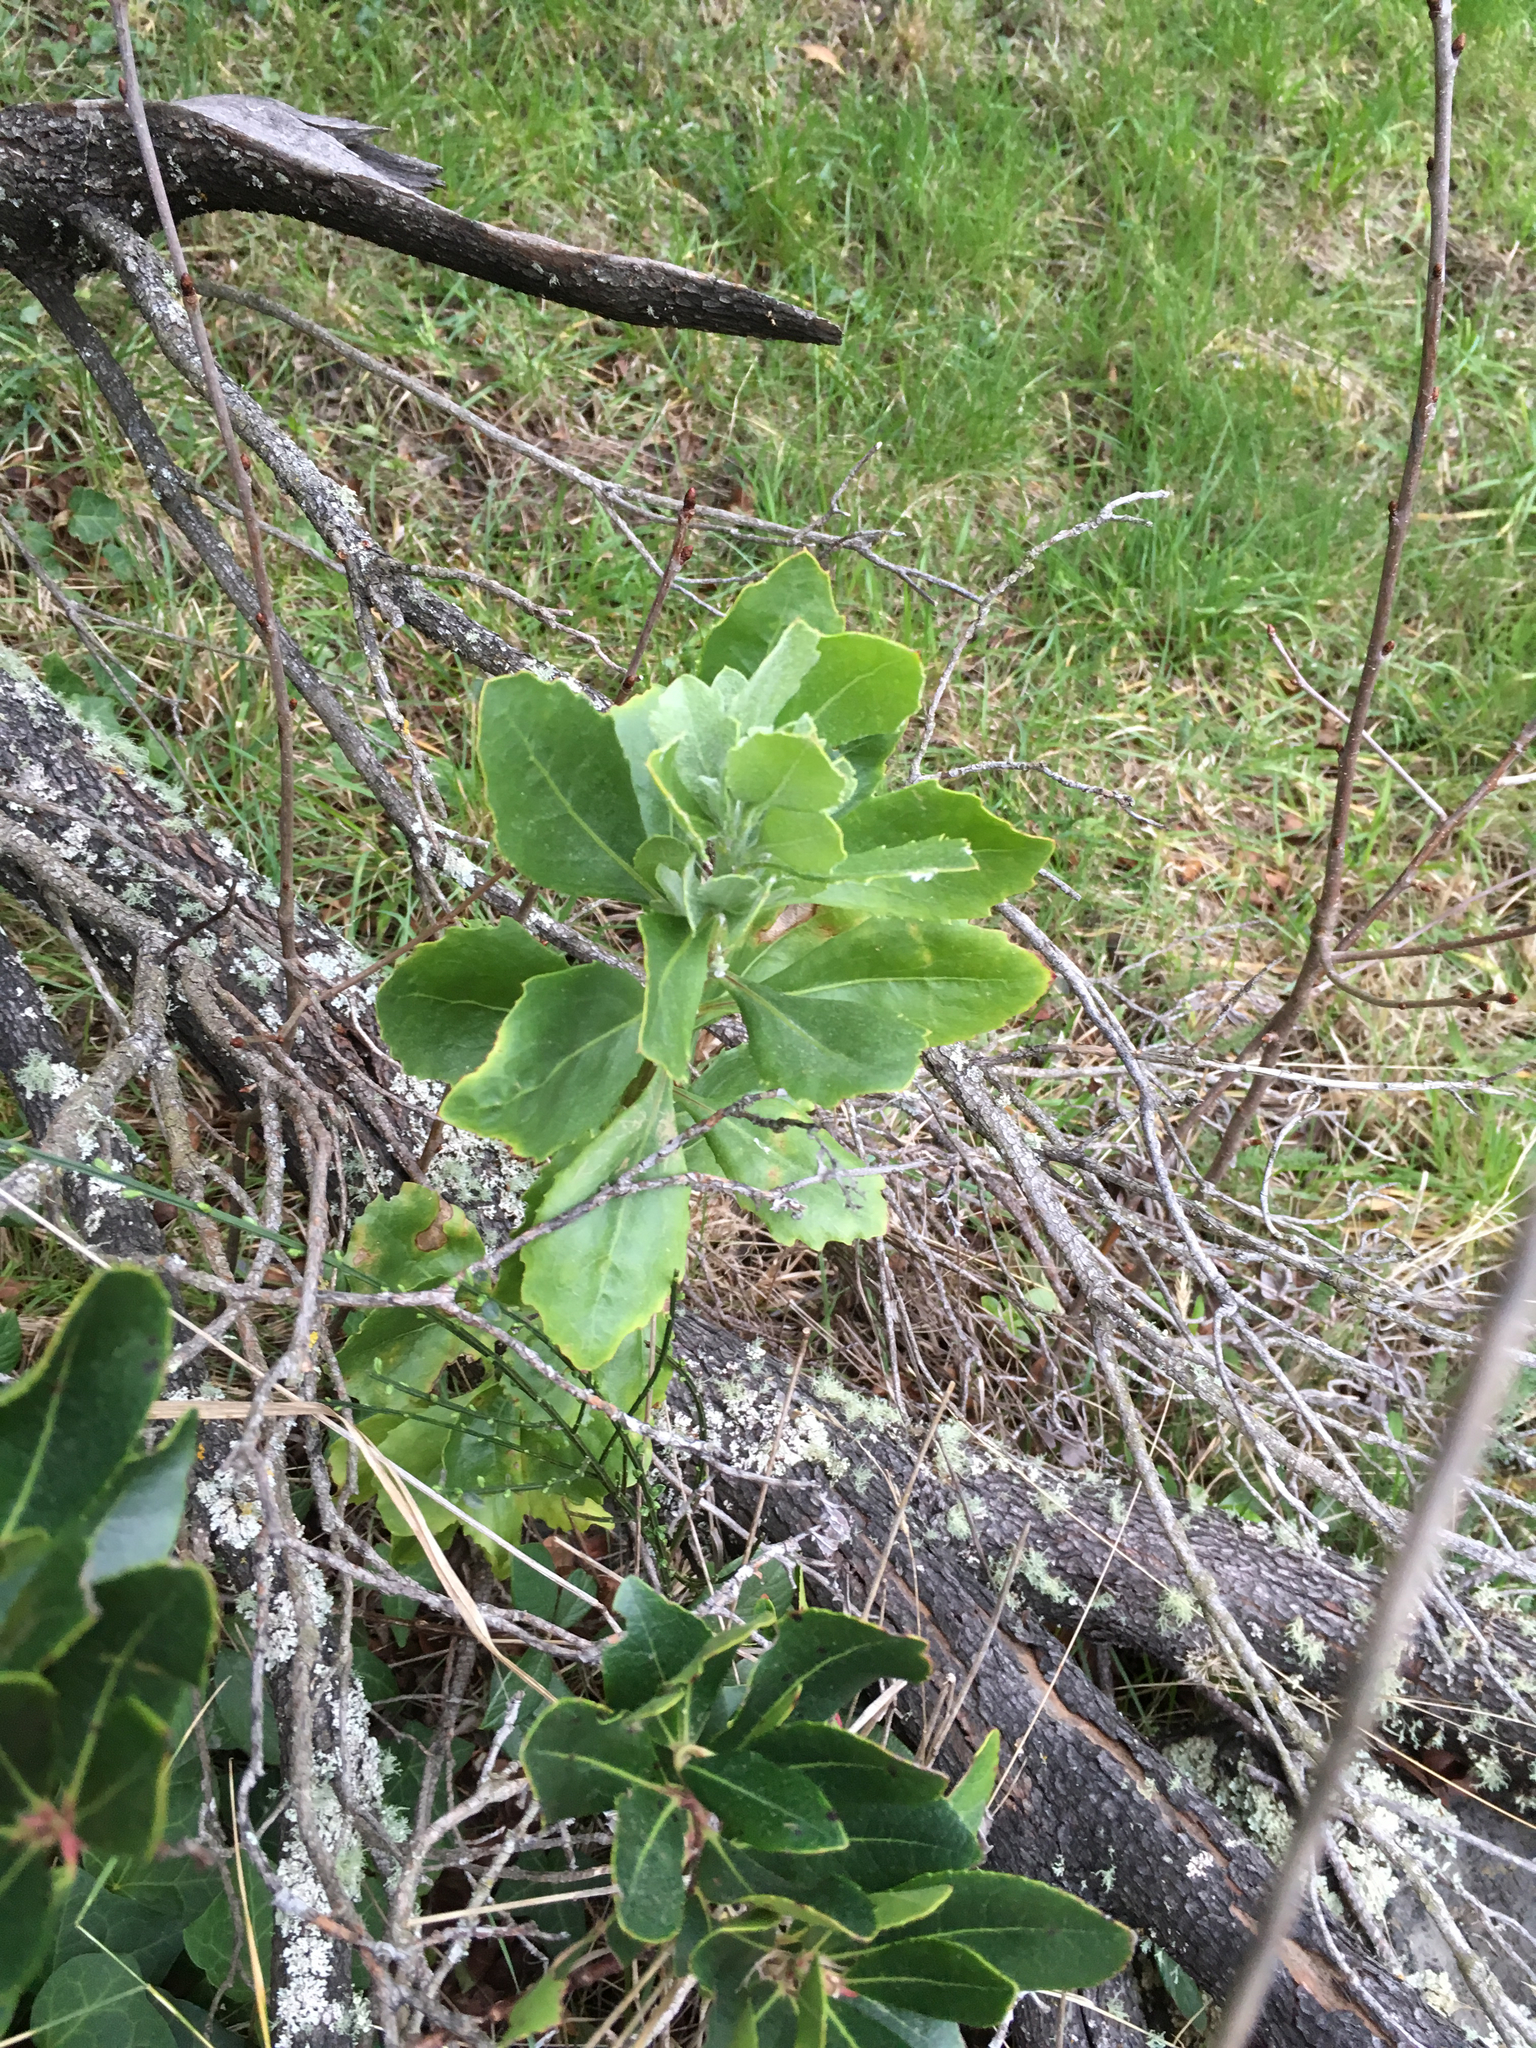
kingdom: Plantae
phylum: Tracheophyta
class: Magnoliopsida
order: Asterales
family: Asteraceae
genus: Osteospermum
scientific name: Osteospermum moniliferum
